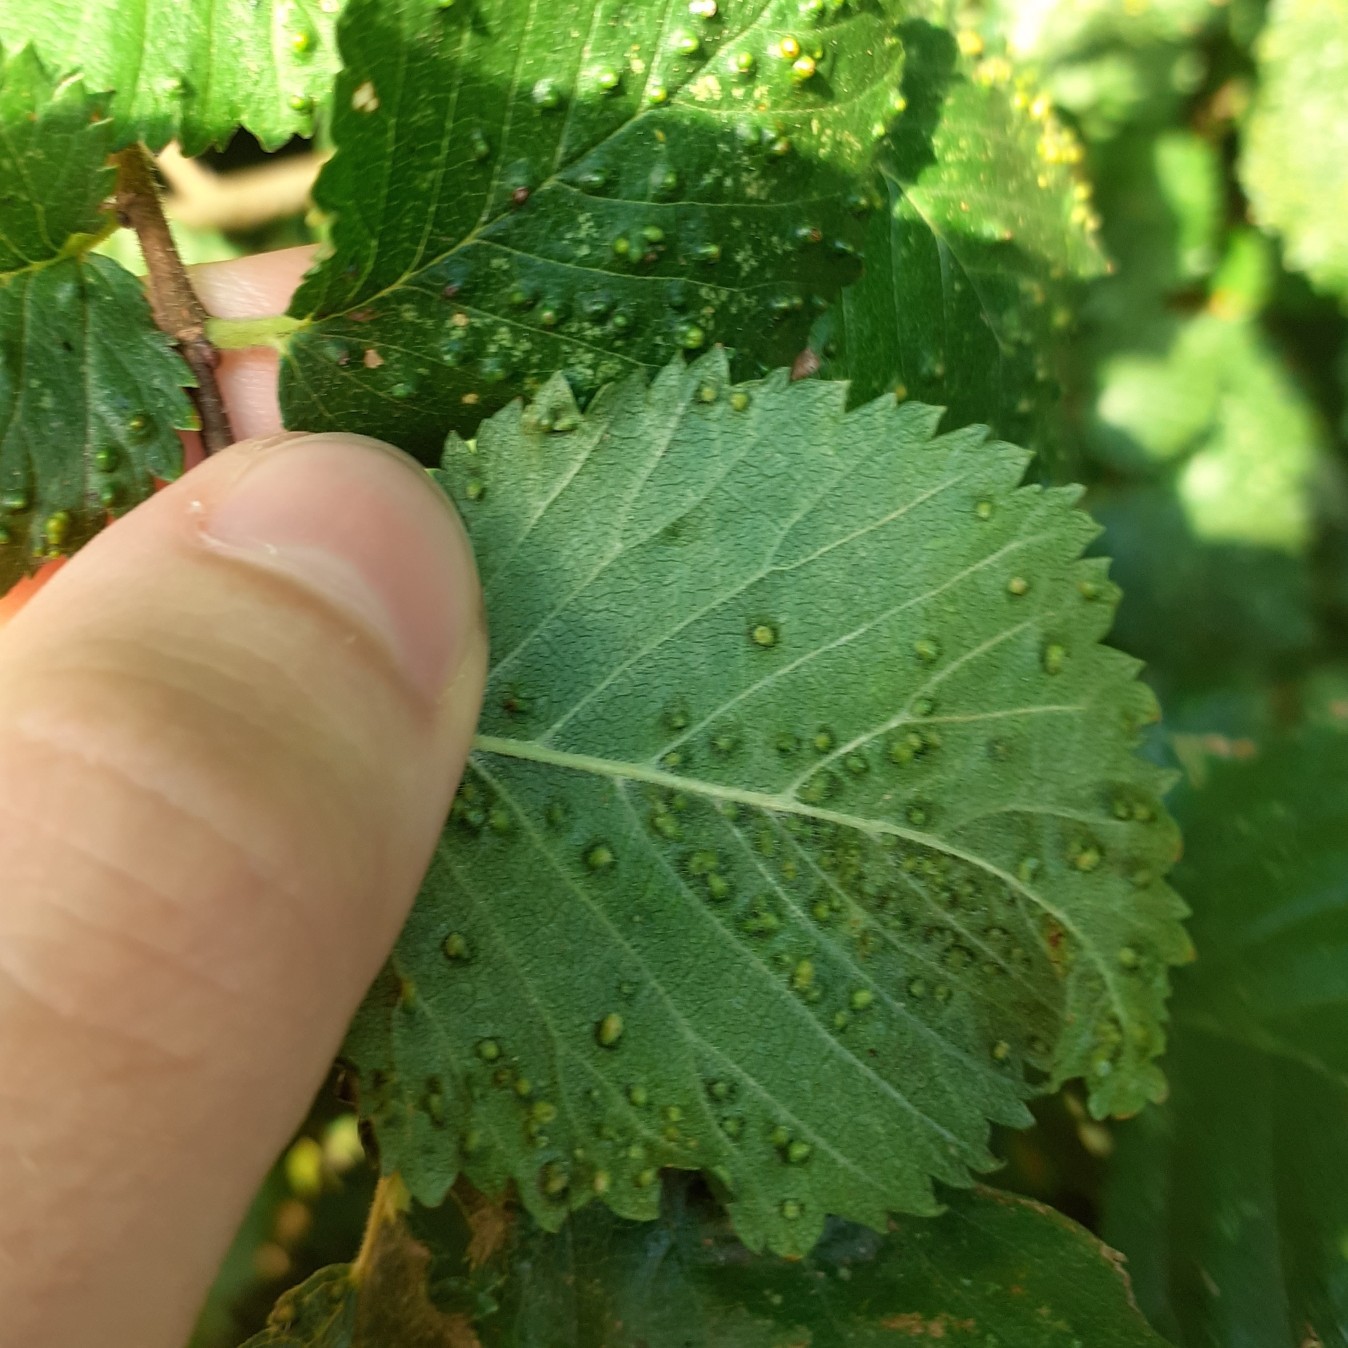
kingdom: Animalia
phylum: Arthropoda
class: Arachnida
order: Trombidiformes
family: Eriophyidae
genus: Aceria
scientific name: Aceria brevipunctata
